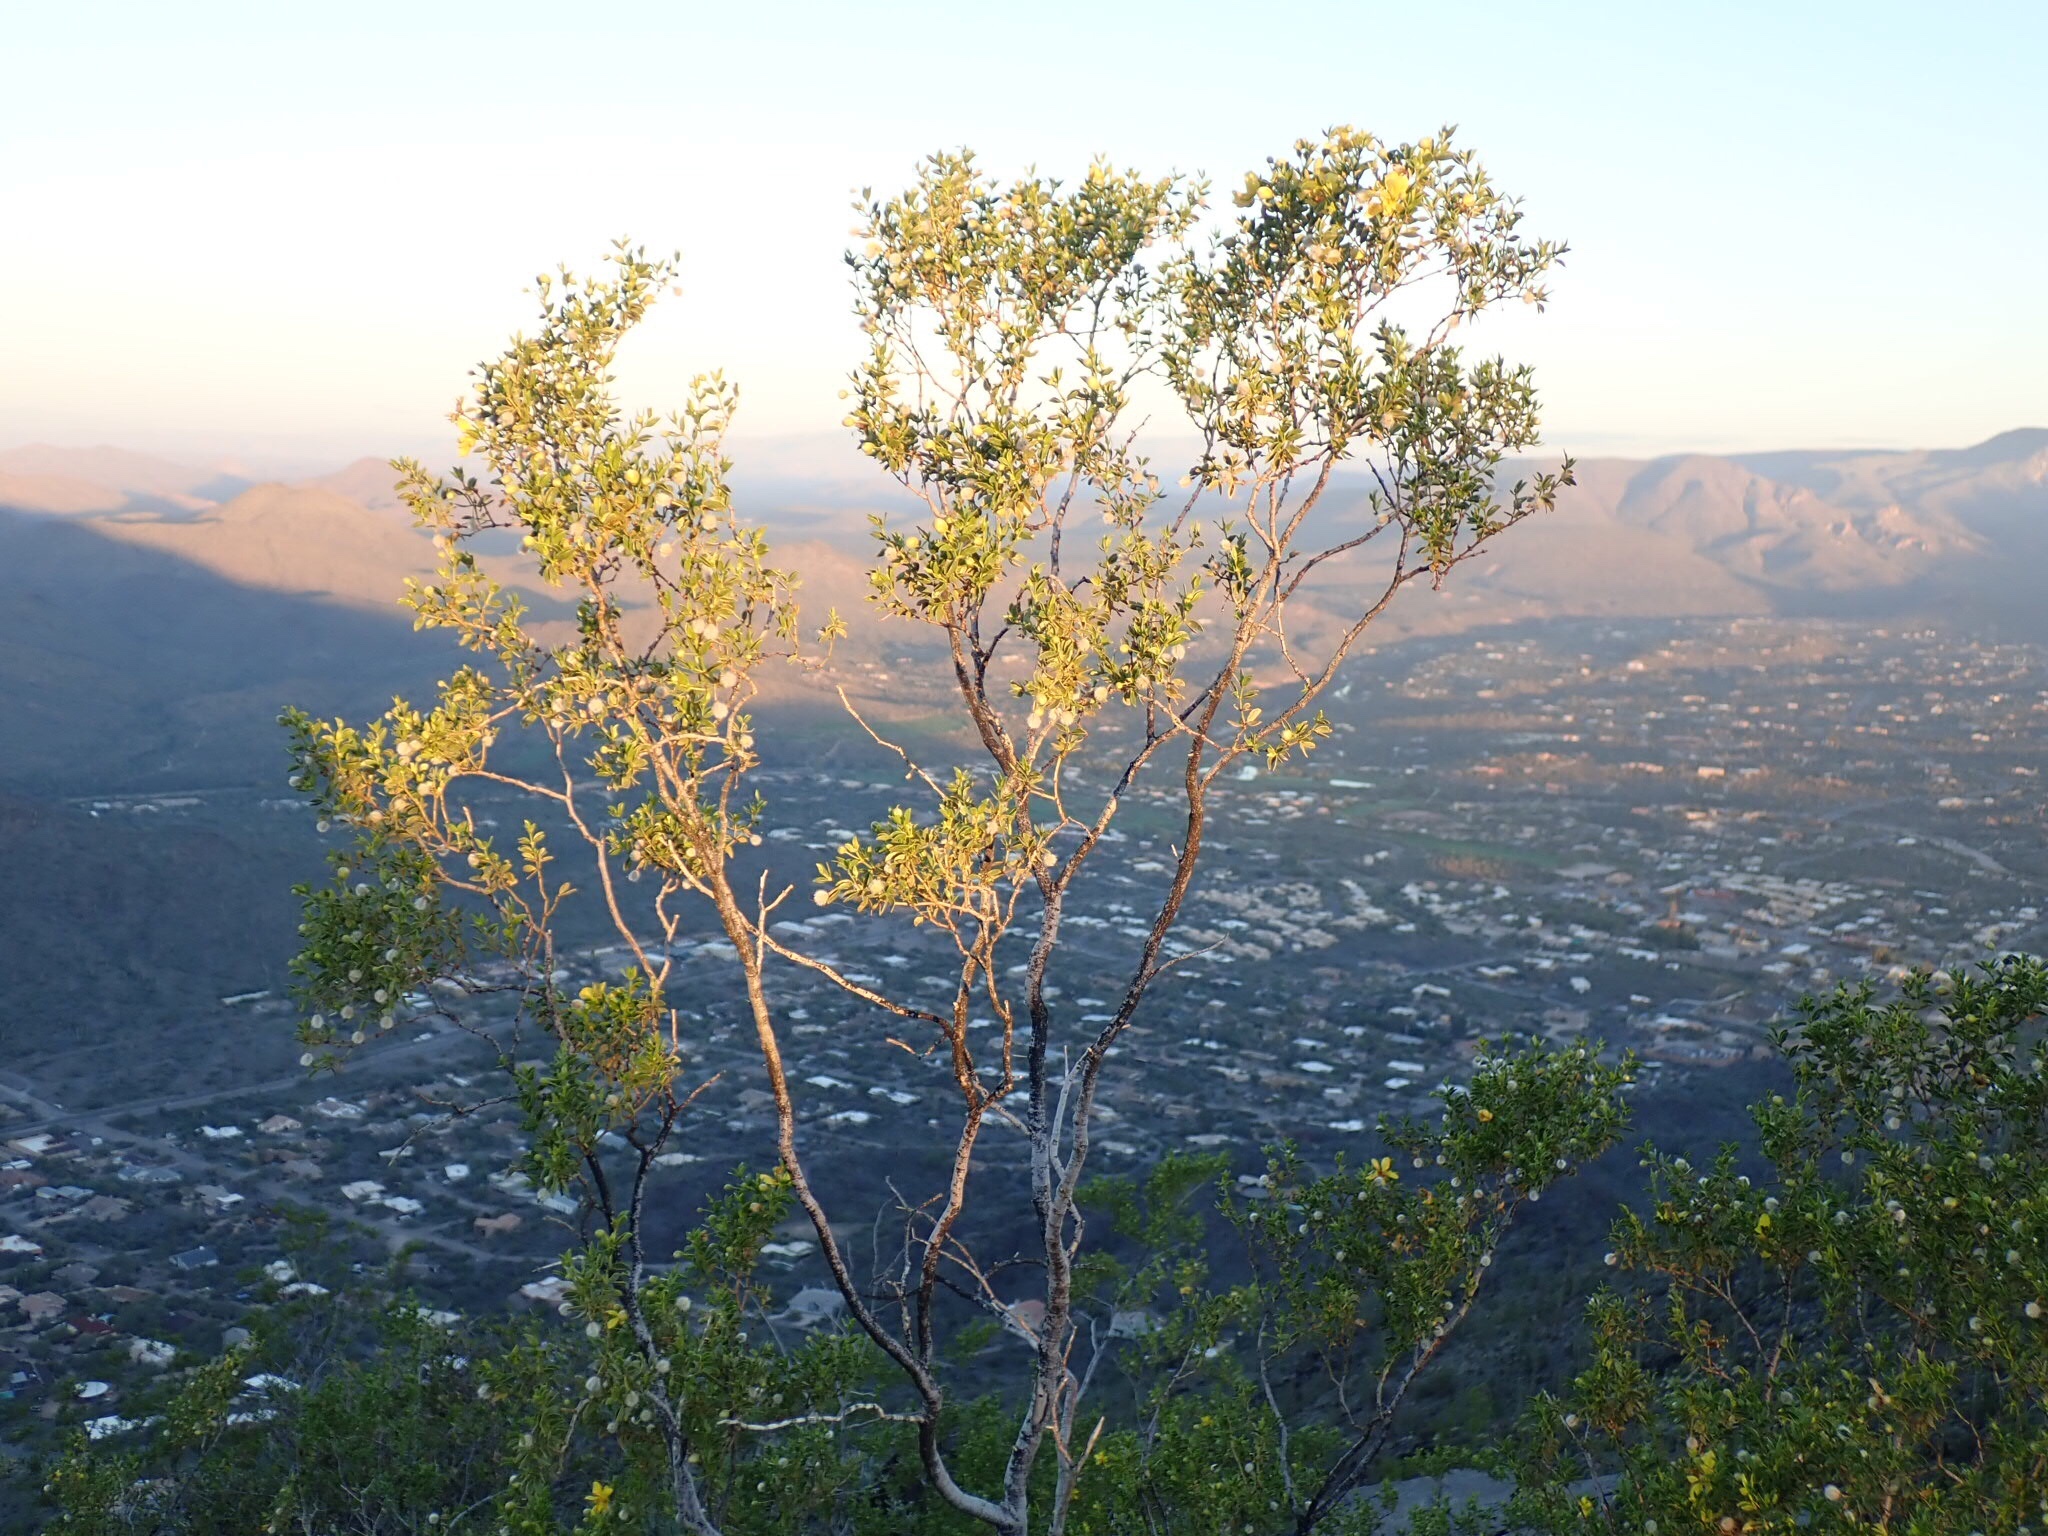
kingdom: Plantae
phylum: Tracheophyta
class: Magnoliopsida
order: Zygophyllales
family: Zygophyllaceae
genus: Larrea
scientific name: Larrea tridentata
